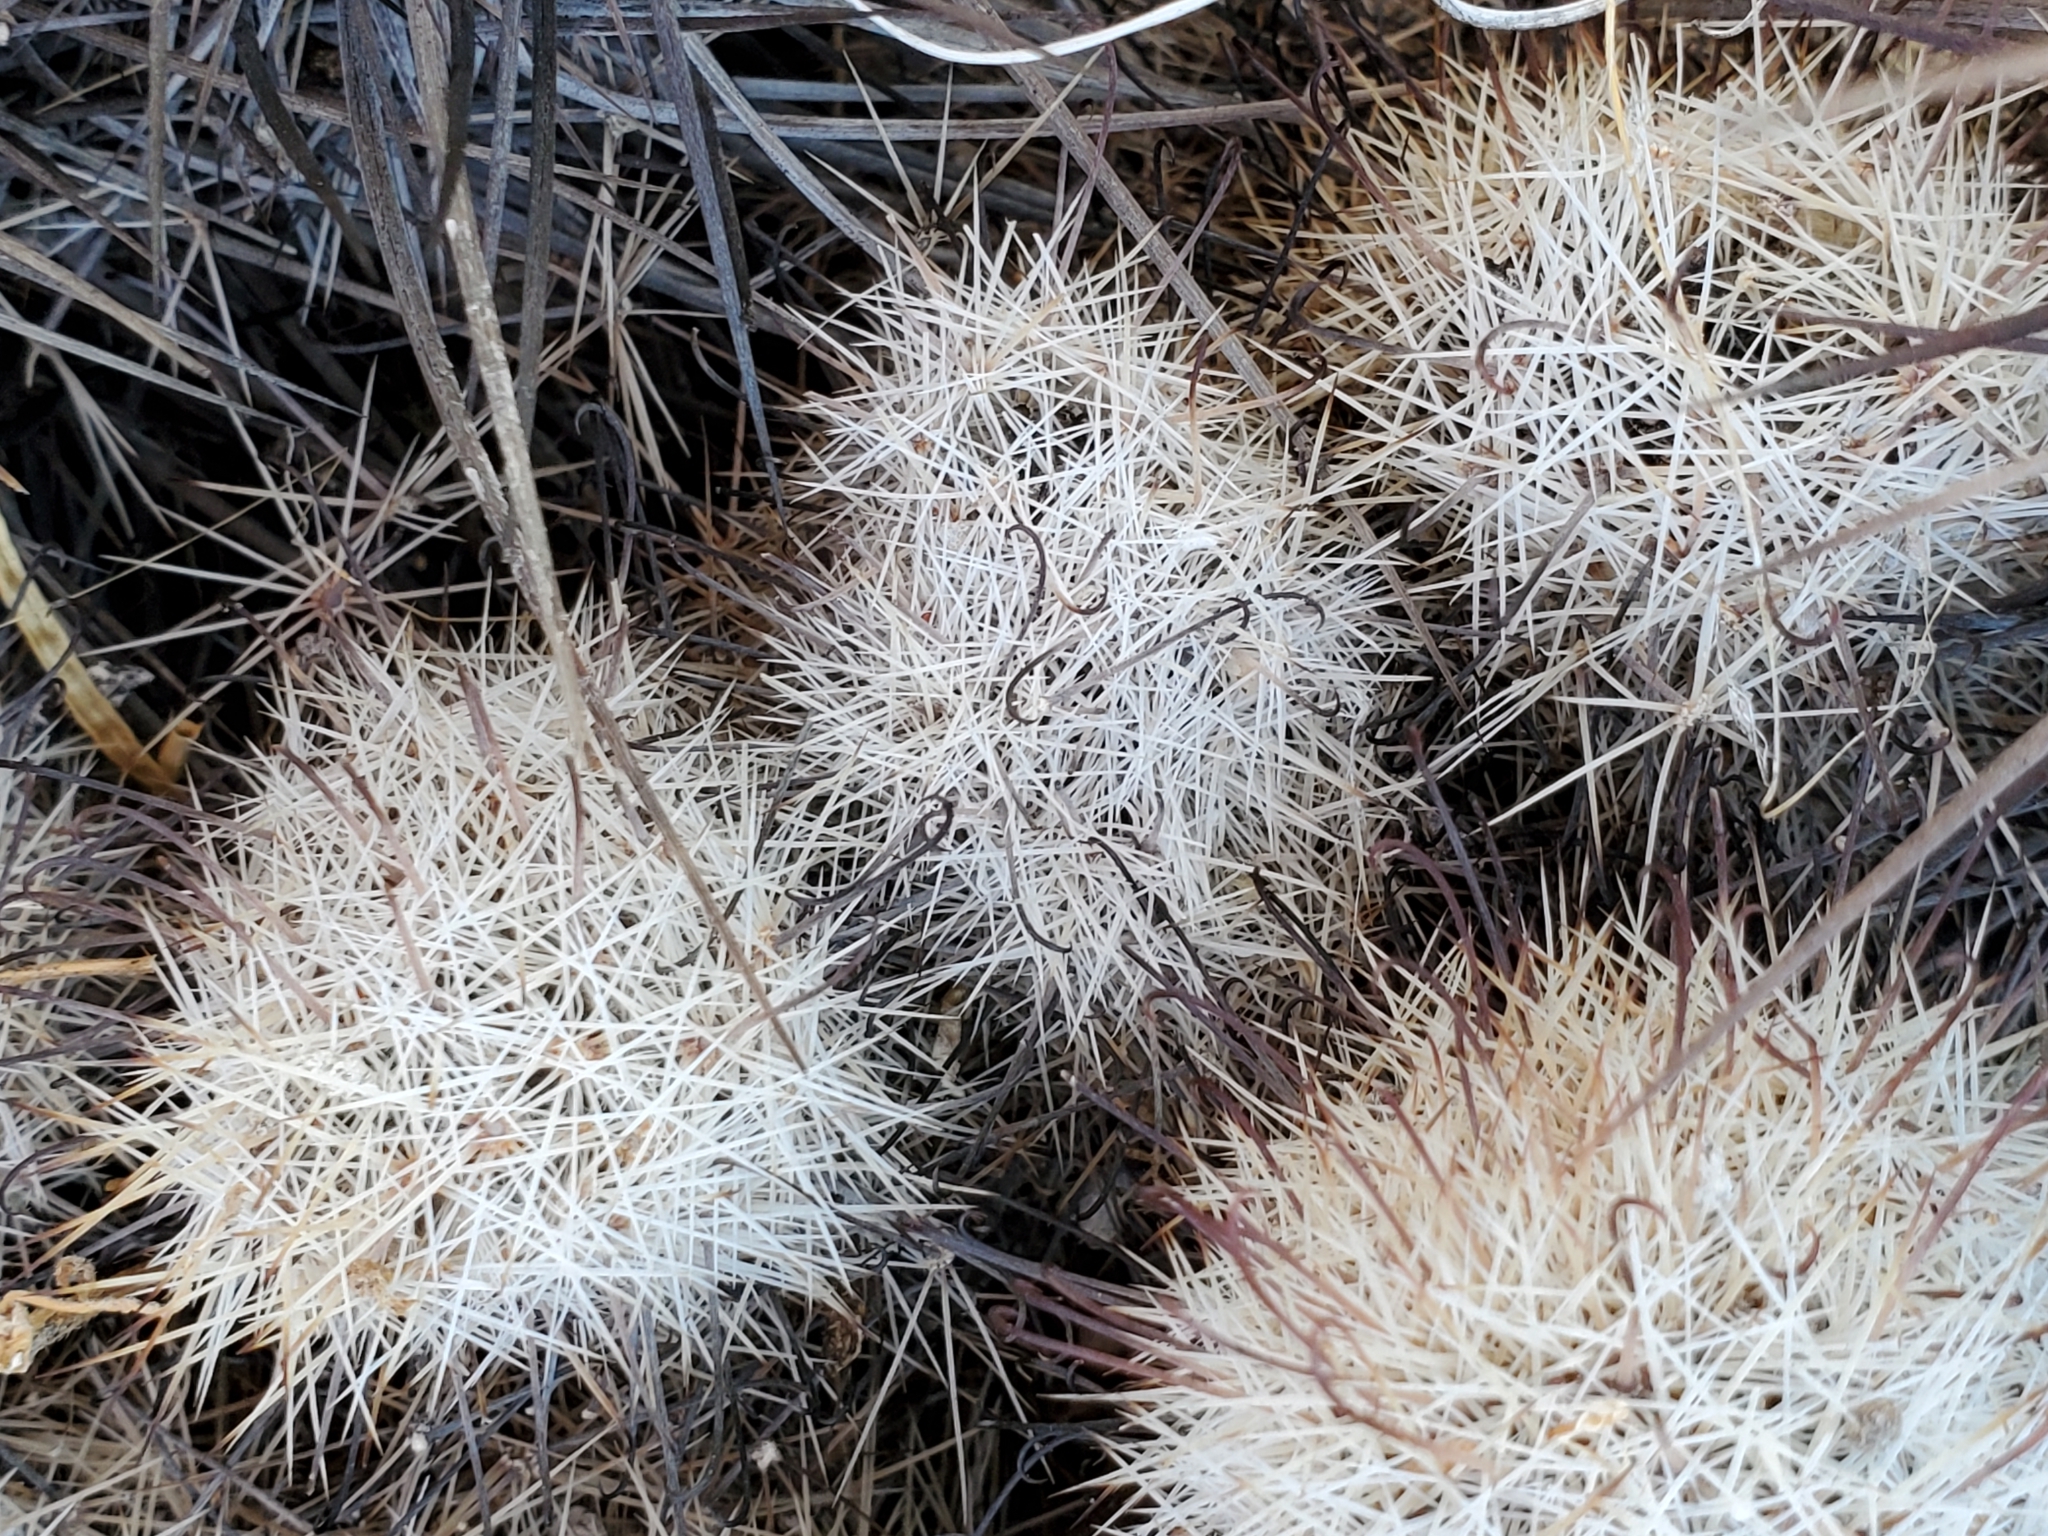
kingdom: Plantae
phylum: Tracheophyta
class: Magnoliopsida
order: Caryophyllales
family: Cactaceae
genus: Cochemiea
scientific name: Cochemiea dioica
